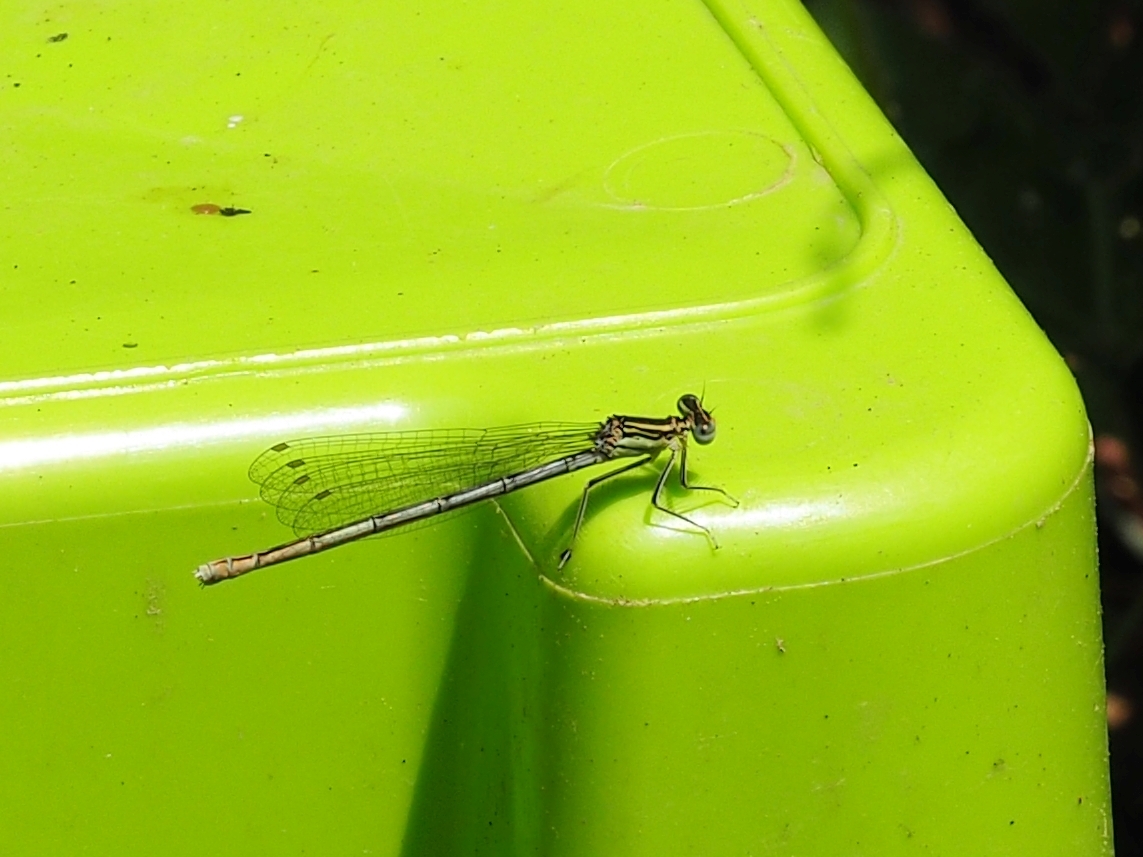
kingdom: Animalia
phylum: Arthropoda
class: Insecta
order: Odonata
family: Platycnemididae
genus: Platycnemis
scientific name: Platycnemis pennipes
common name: White-legged damselfly
